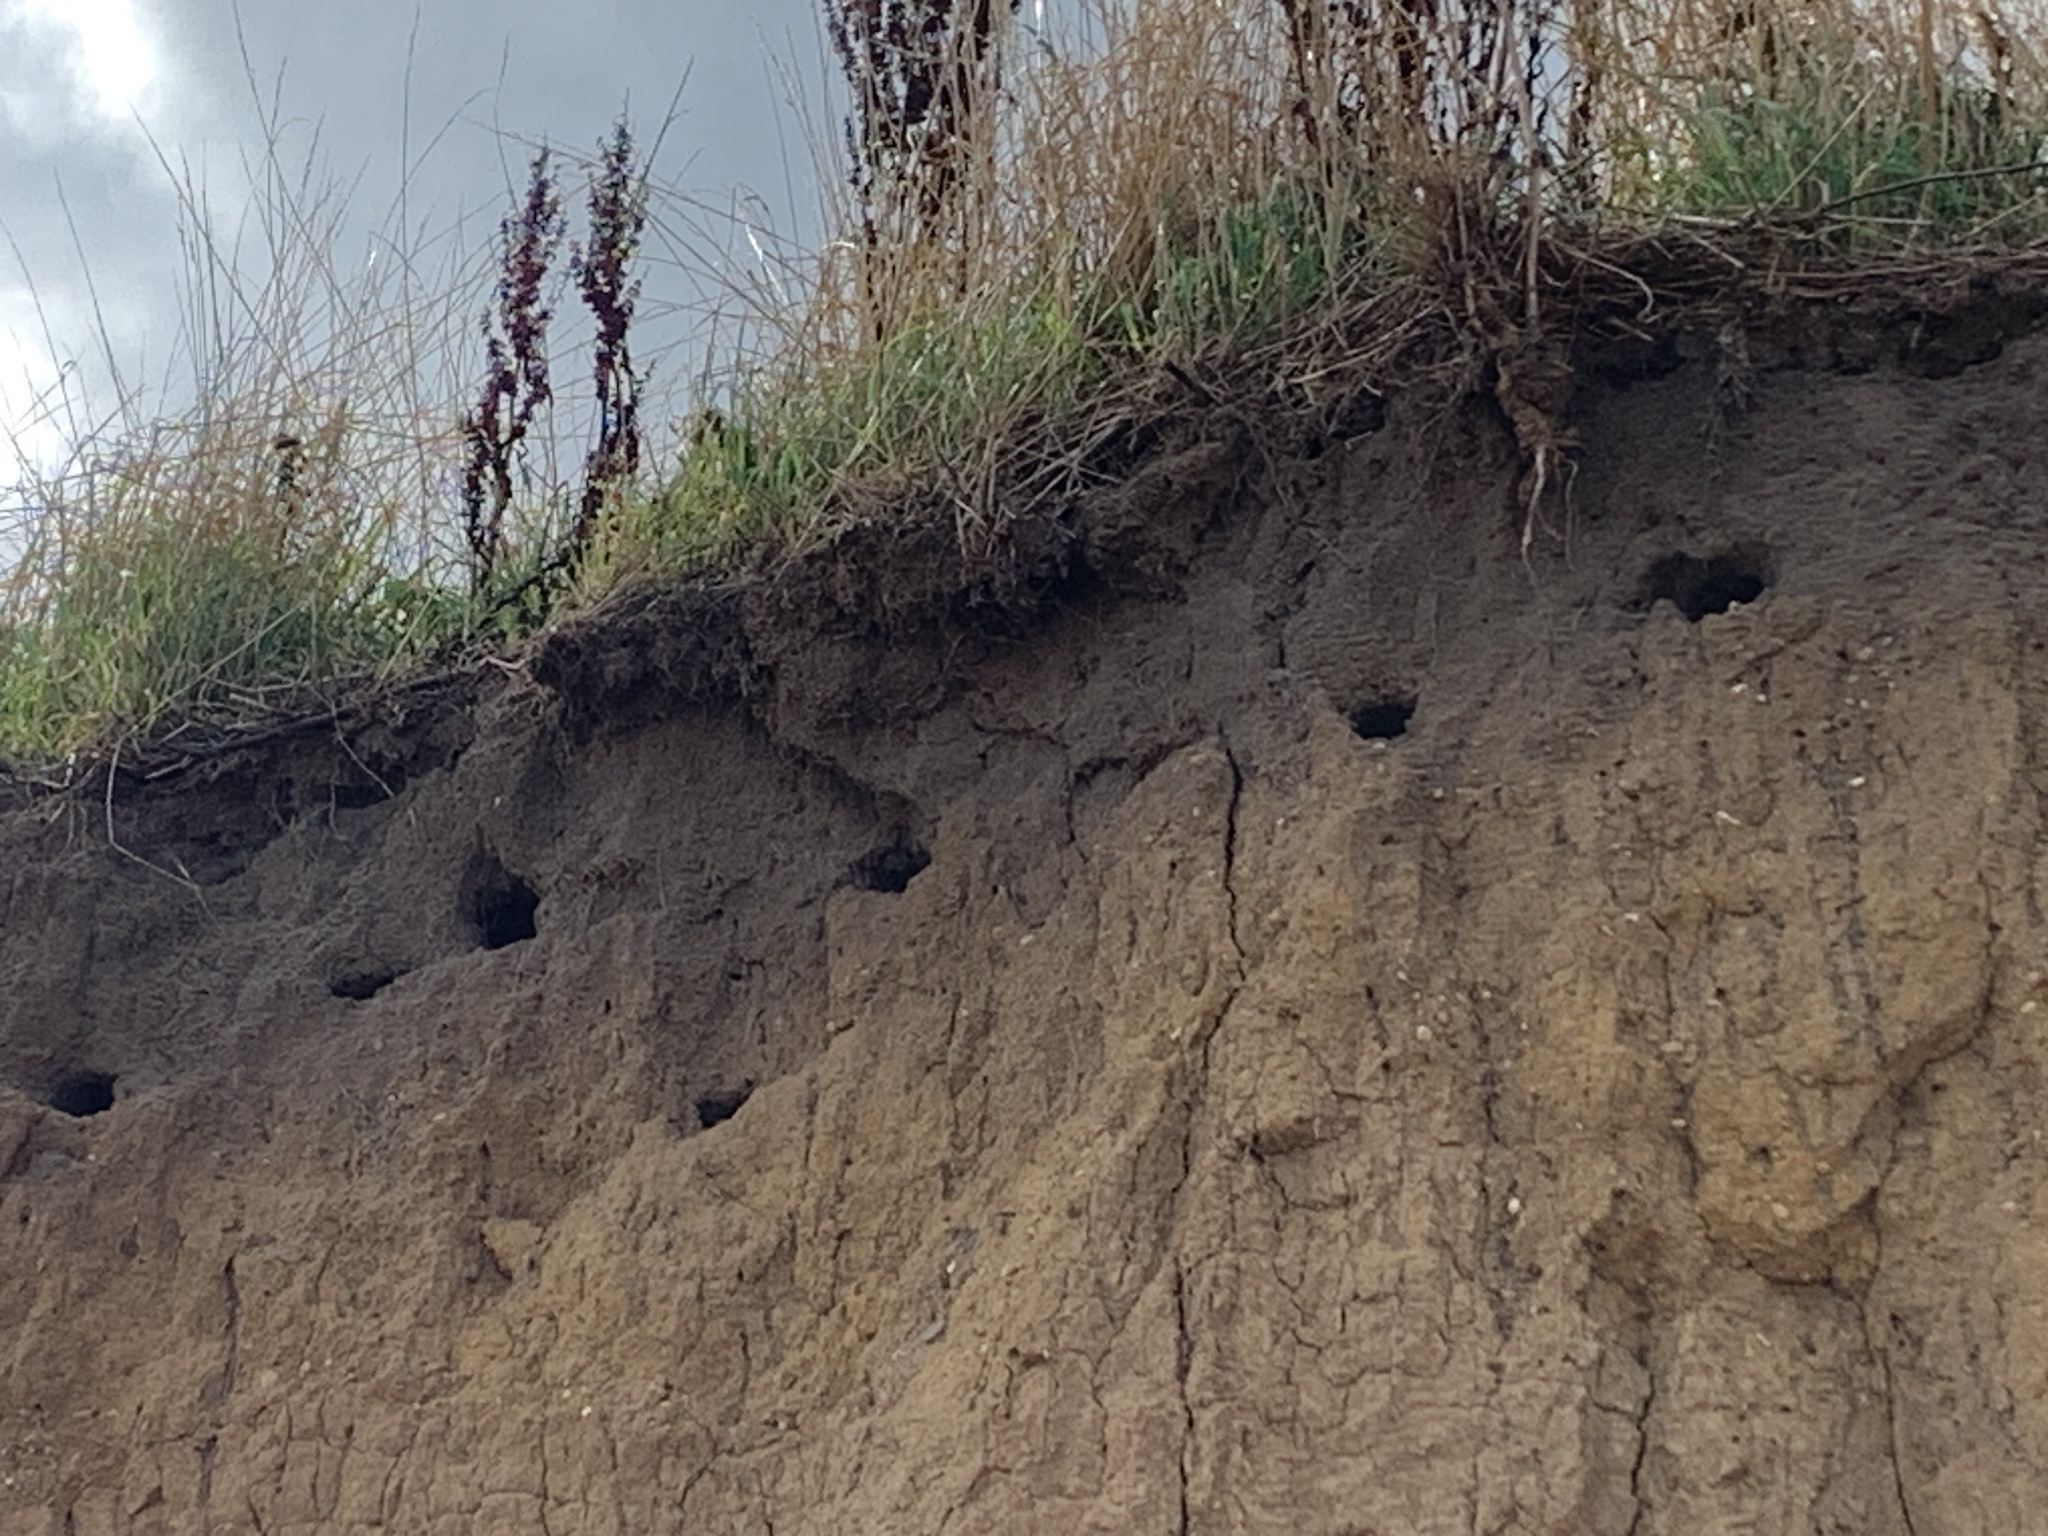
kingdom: Animalia
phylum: Chordata
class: Aves
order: Passeriformes
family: Hirundinidae
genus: Riparia
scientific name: Riparia riparia
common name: Sand martin
